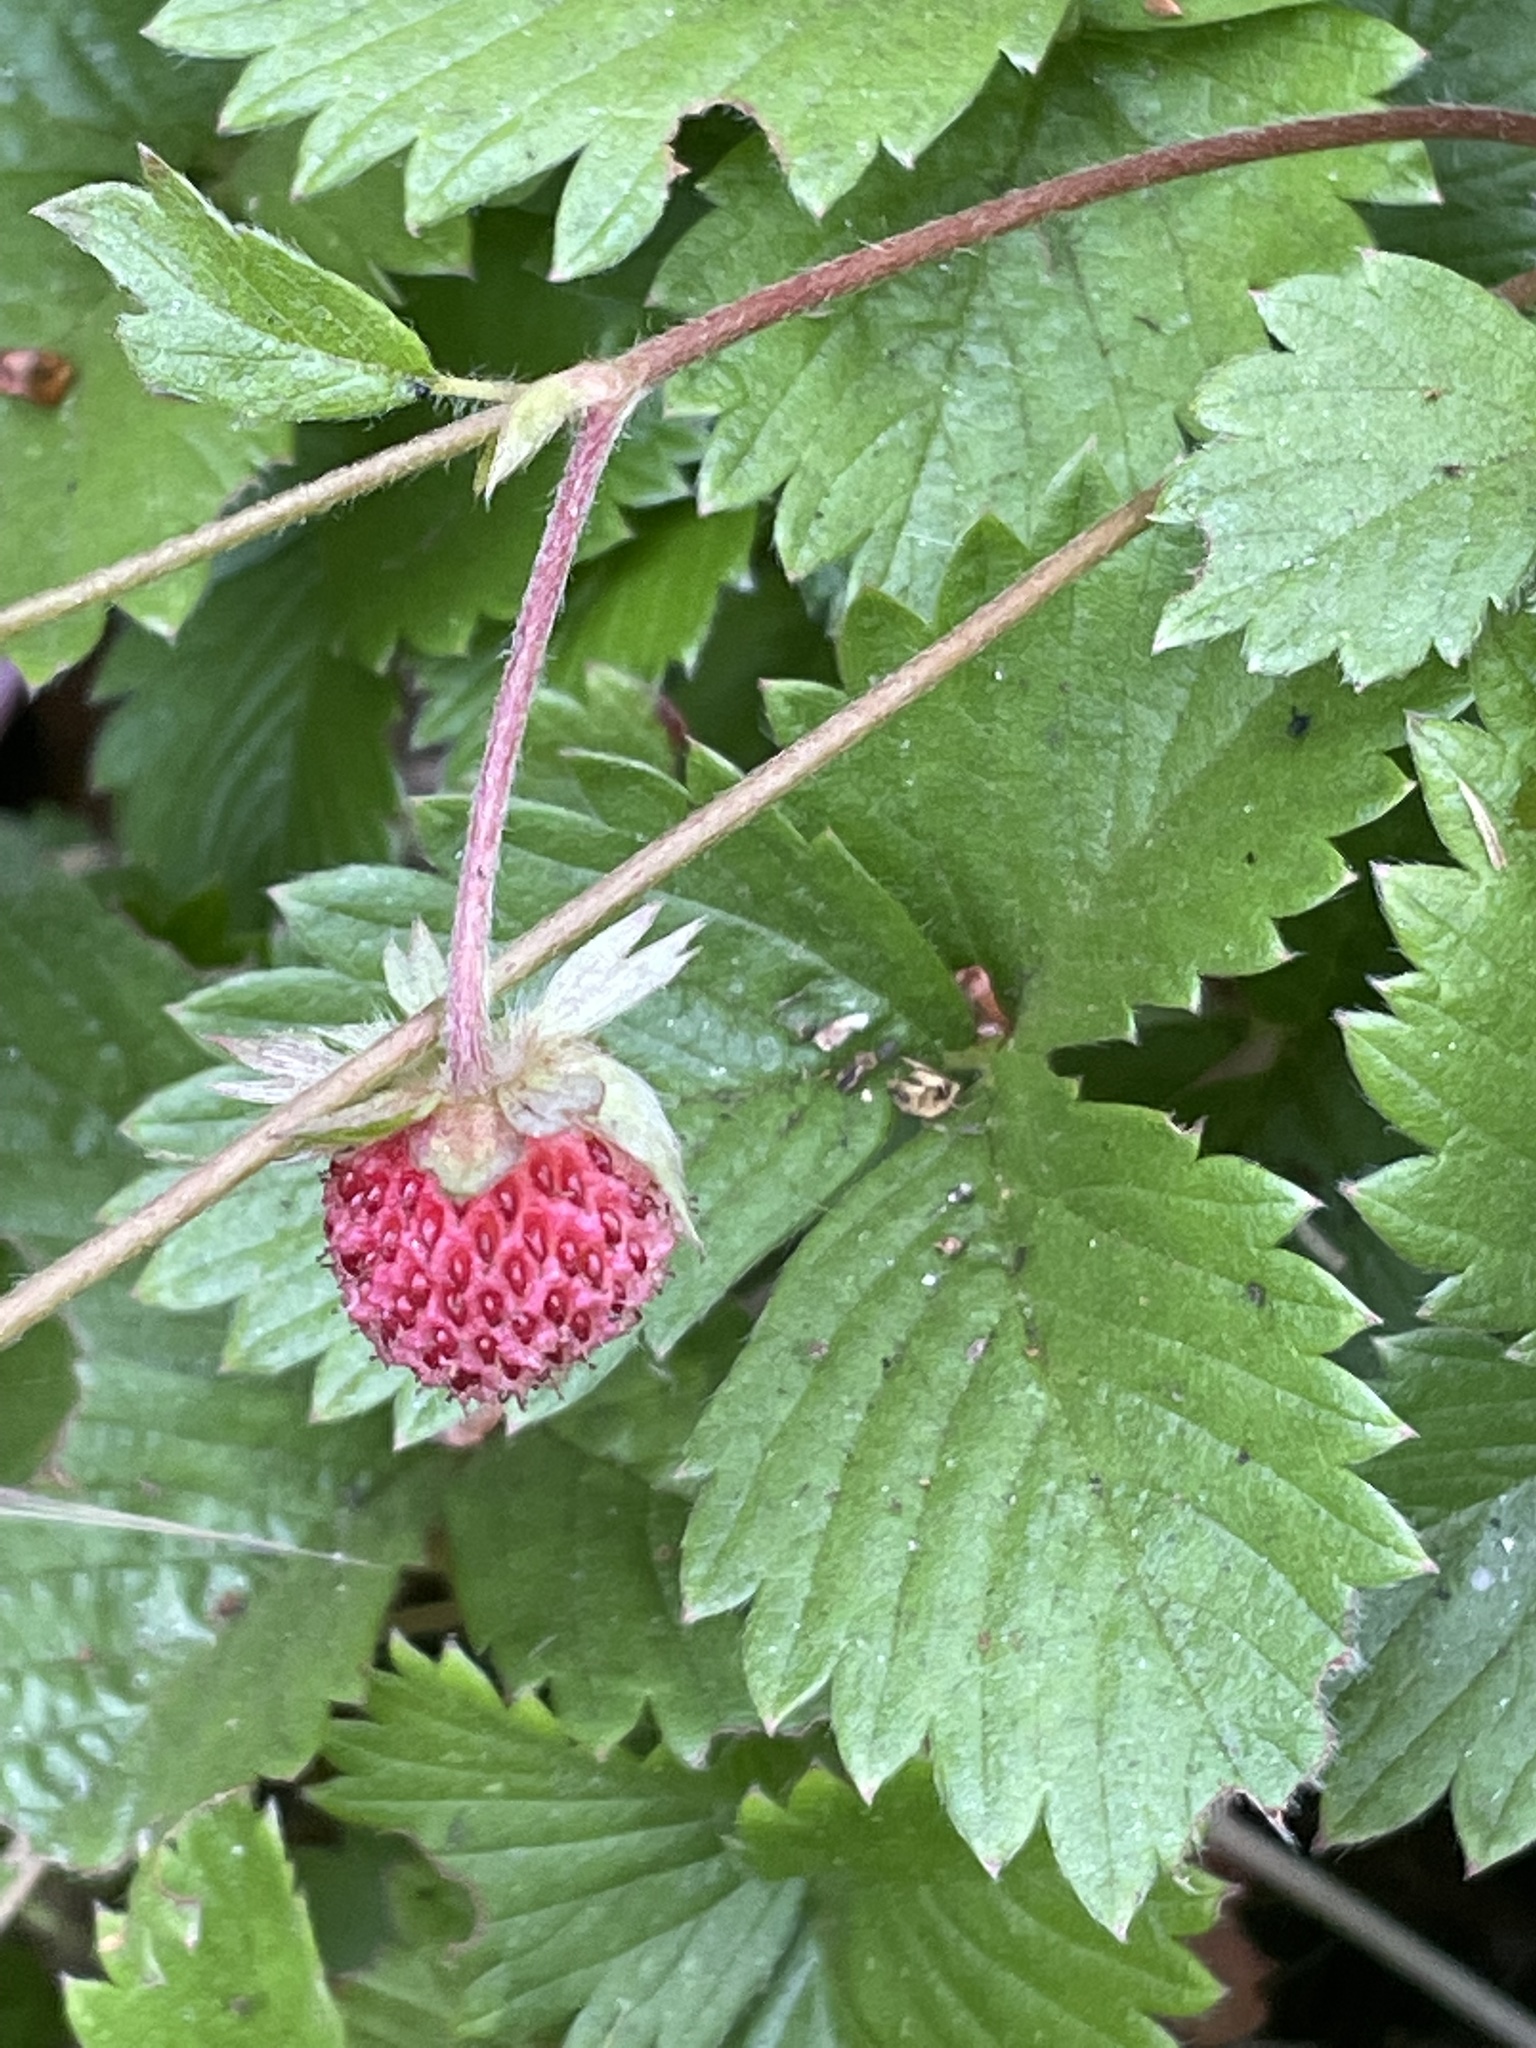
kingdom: Plantae
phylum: Tracheophyta
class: Magnoliopsida
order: Rosales
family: Rosaceae
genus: Fragaria
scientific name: Fragaria vesca
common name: Wild strawberry
